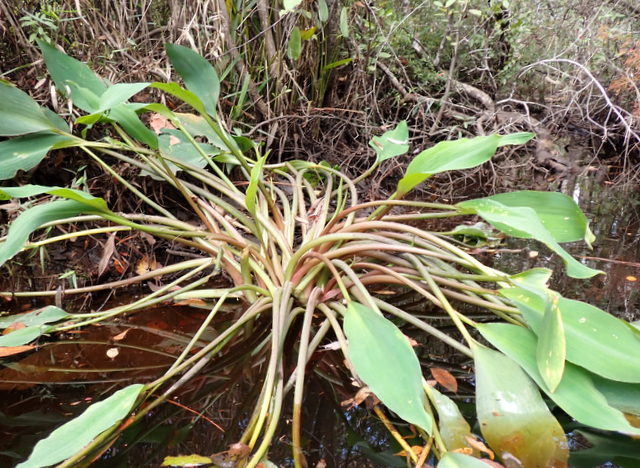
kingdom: Plantae
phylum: Tracheophyta
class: Liliopsida
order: Alismatales
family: Araceae
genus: Orontium
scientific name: Orontium aquaticum
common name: Golden-club
